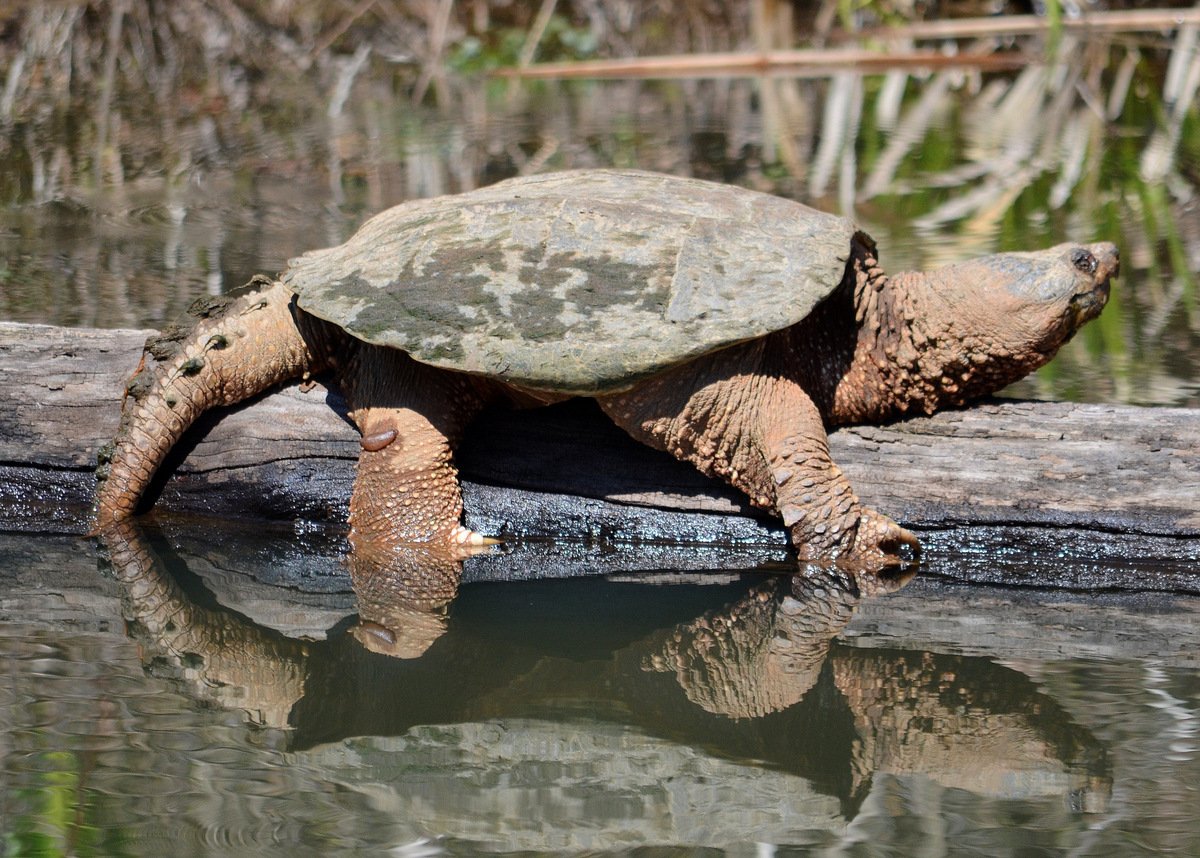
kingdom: Animalia
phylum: Chordata
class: Testudines
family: Chelydridae
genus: Chelydra
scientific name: Chelydra serpentina
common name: Common snapping turtle
